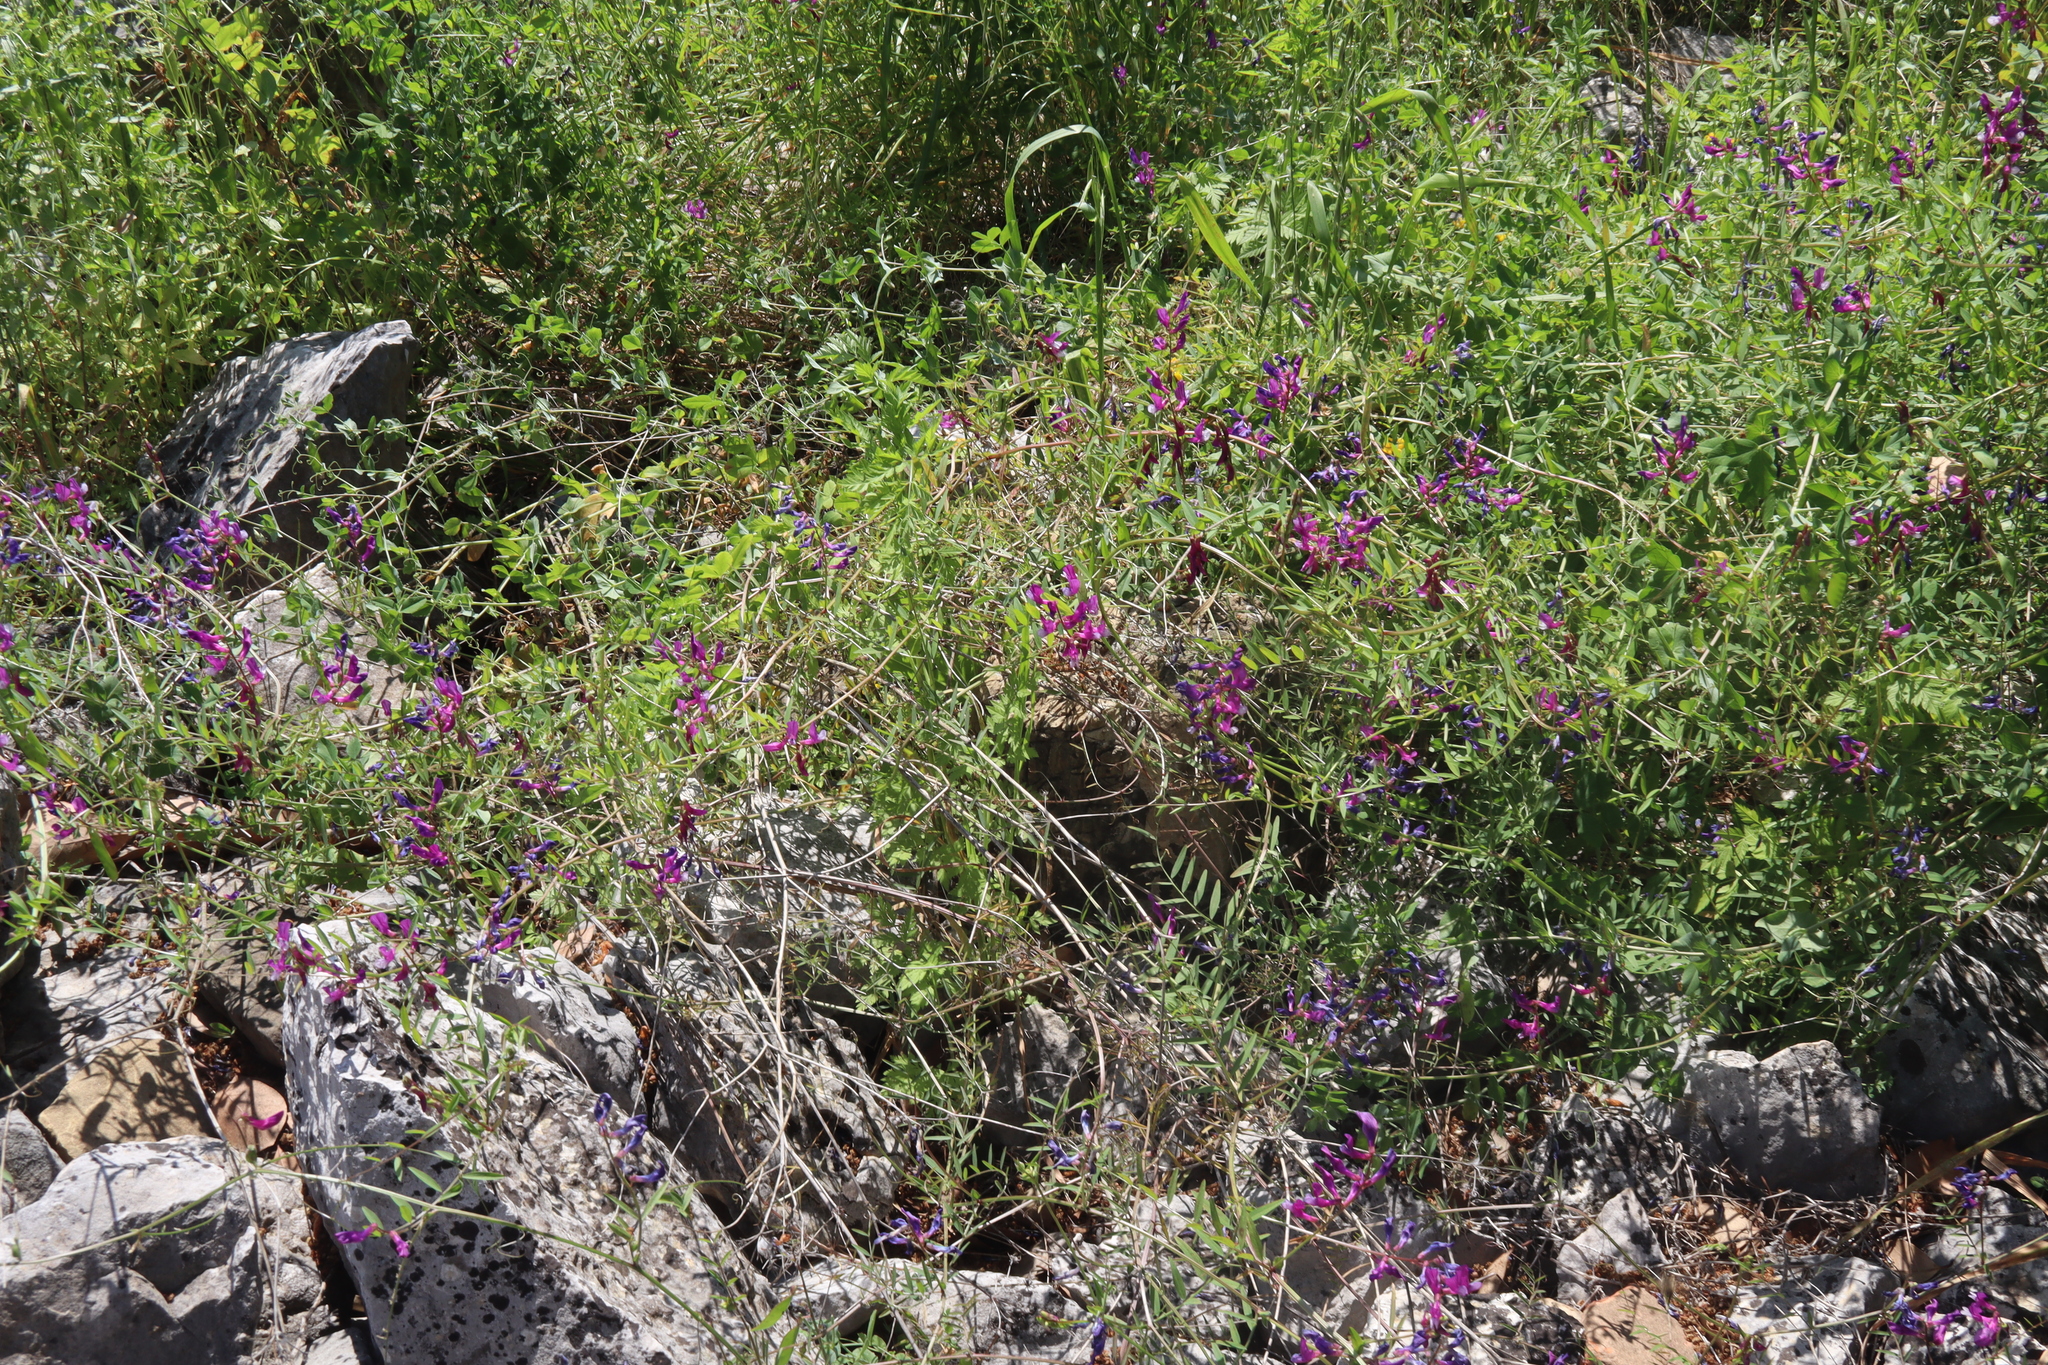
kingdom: Plantae
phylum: Tracheophyta
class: Magnoliopsida
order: Fabales
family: Fabaceae
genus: Vicia
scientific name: Vicia cassia
